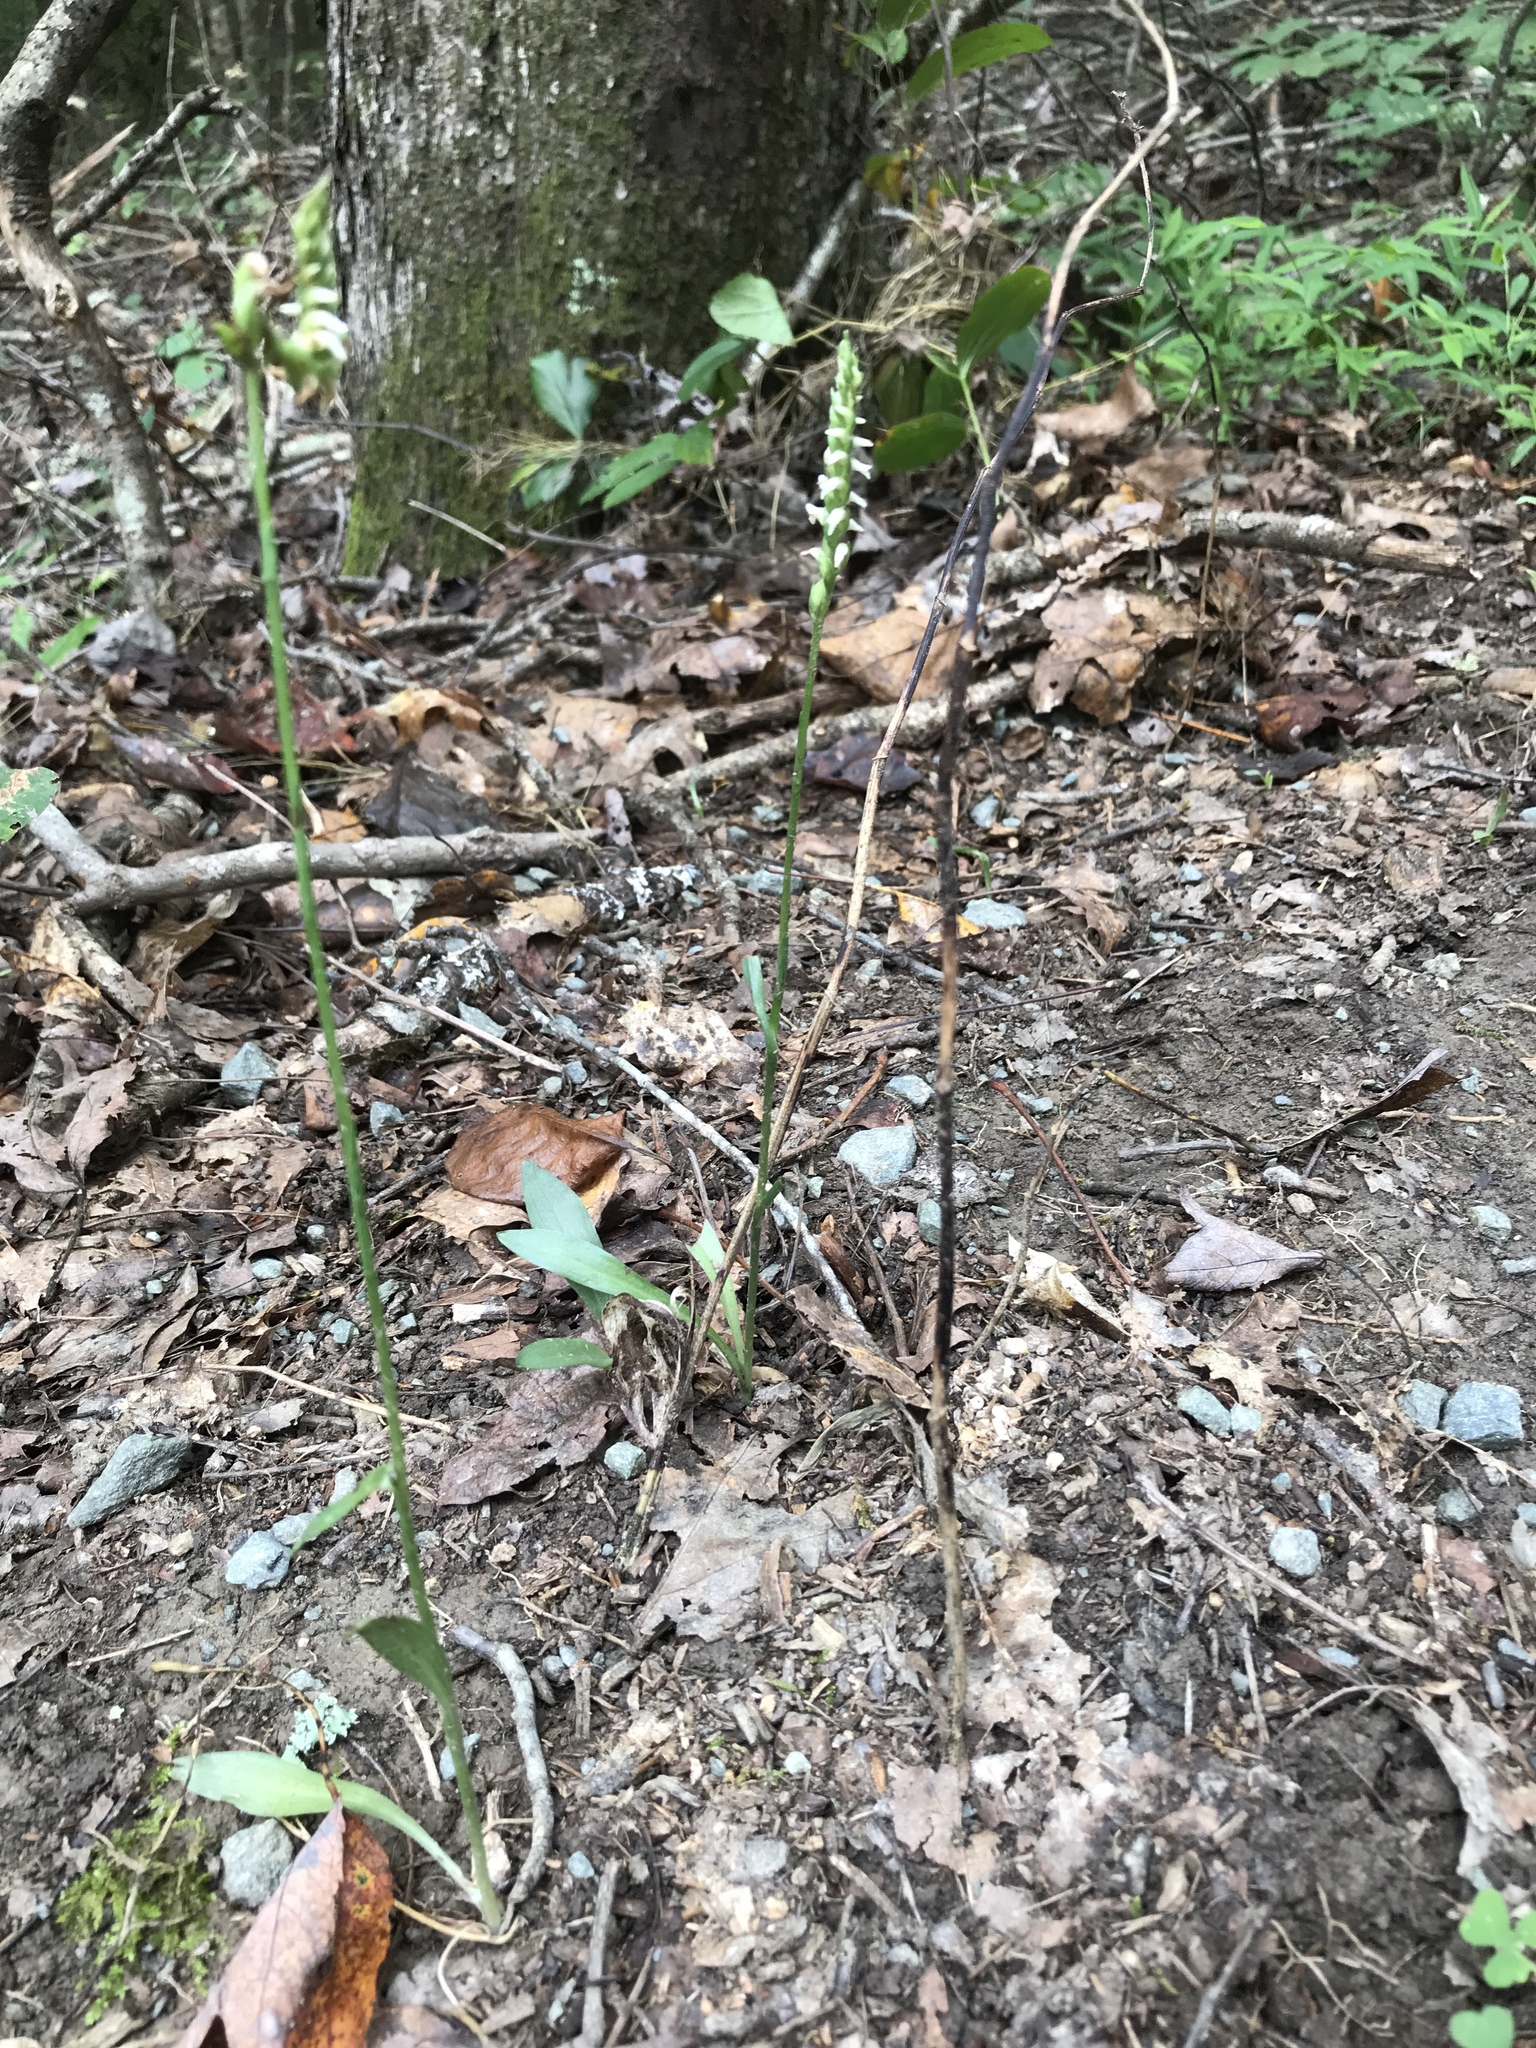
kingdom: Plantae
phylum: Tracheophyta
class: Liliopsida
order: Asparagales
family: Orchidaceae
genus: Spiranthes
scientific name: Spiranthes ovalis
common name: October ladies'-tresses
